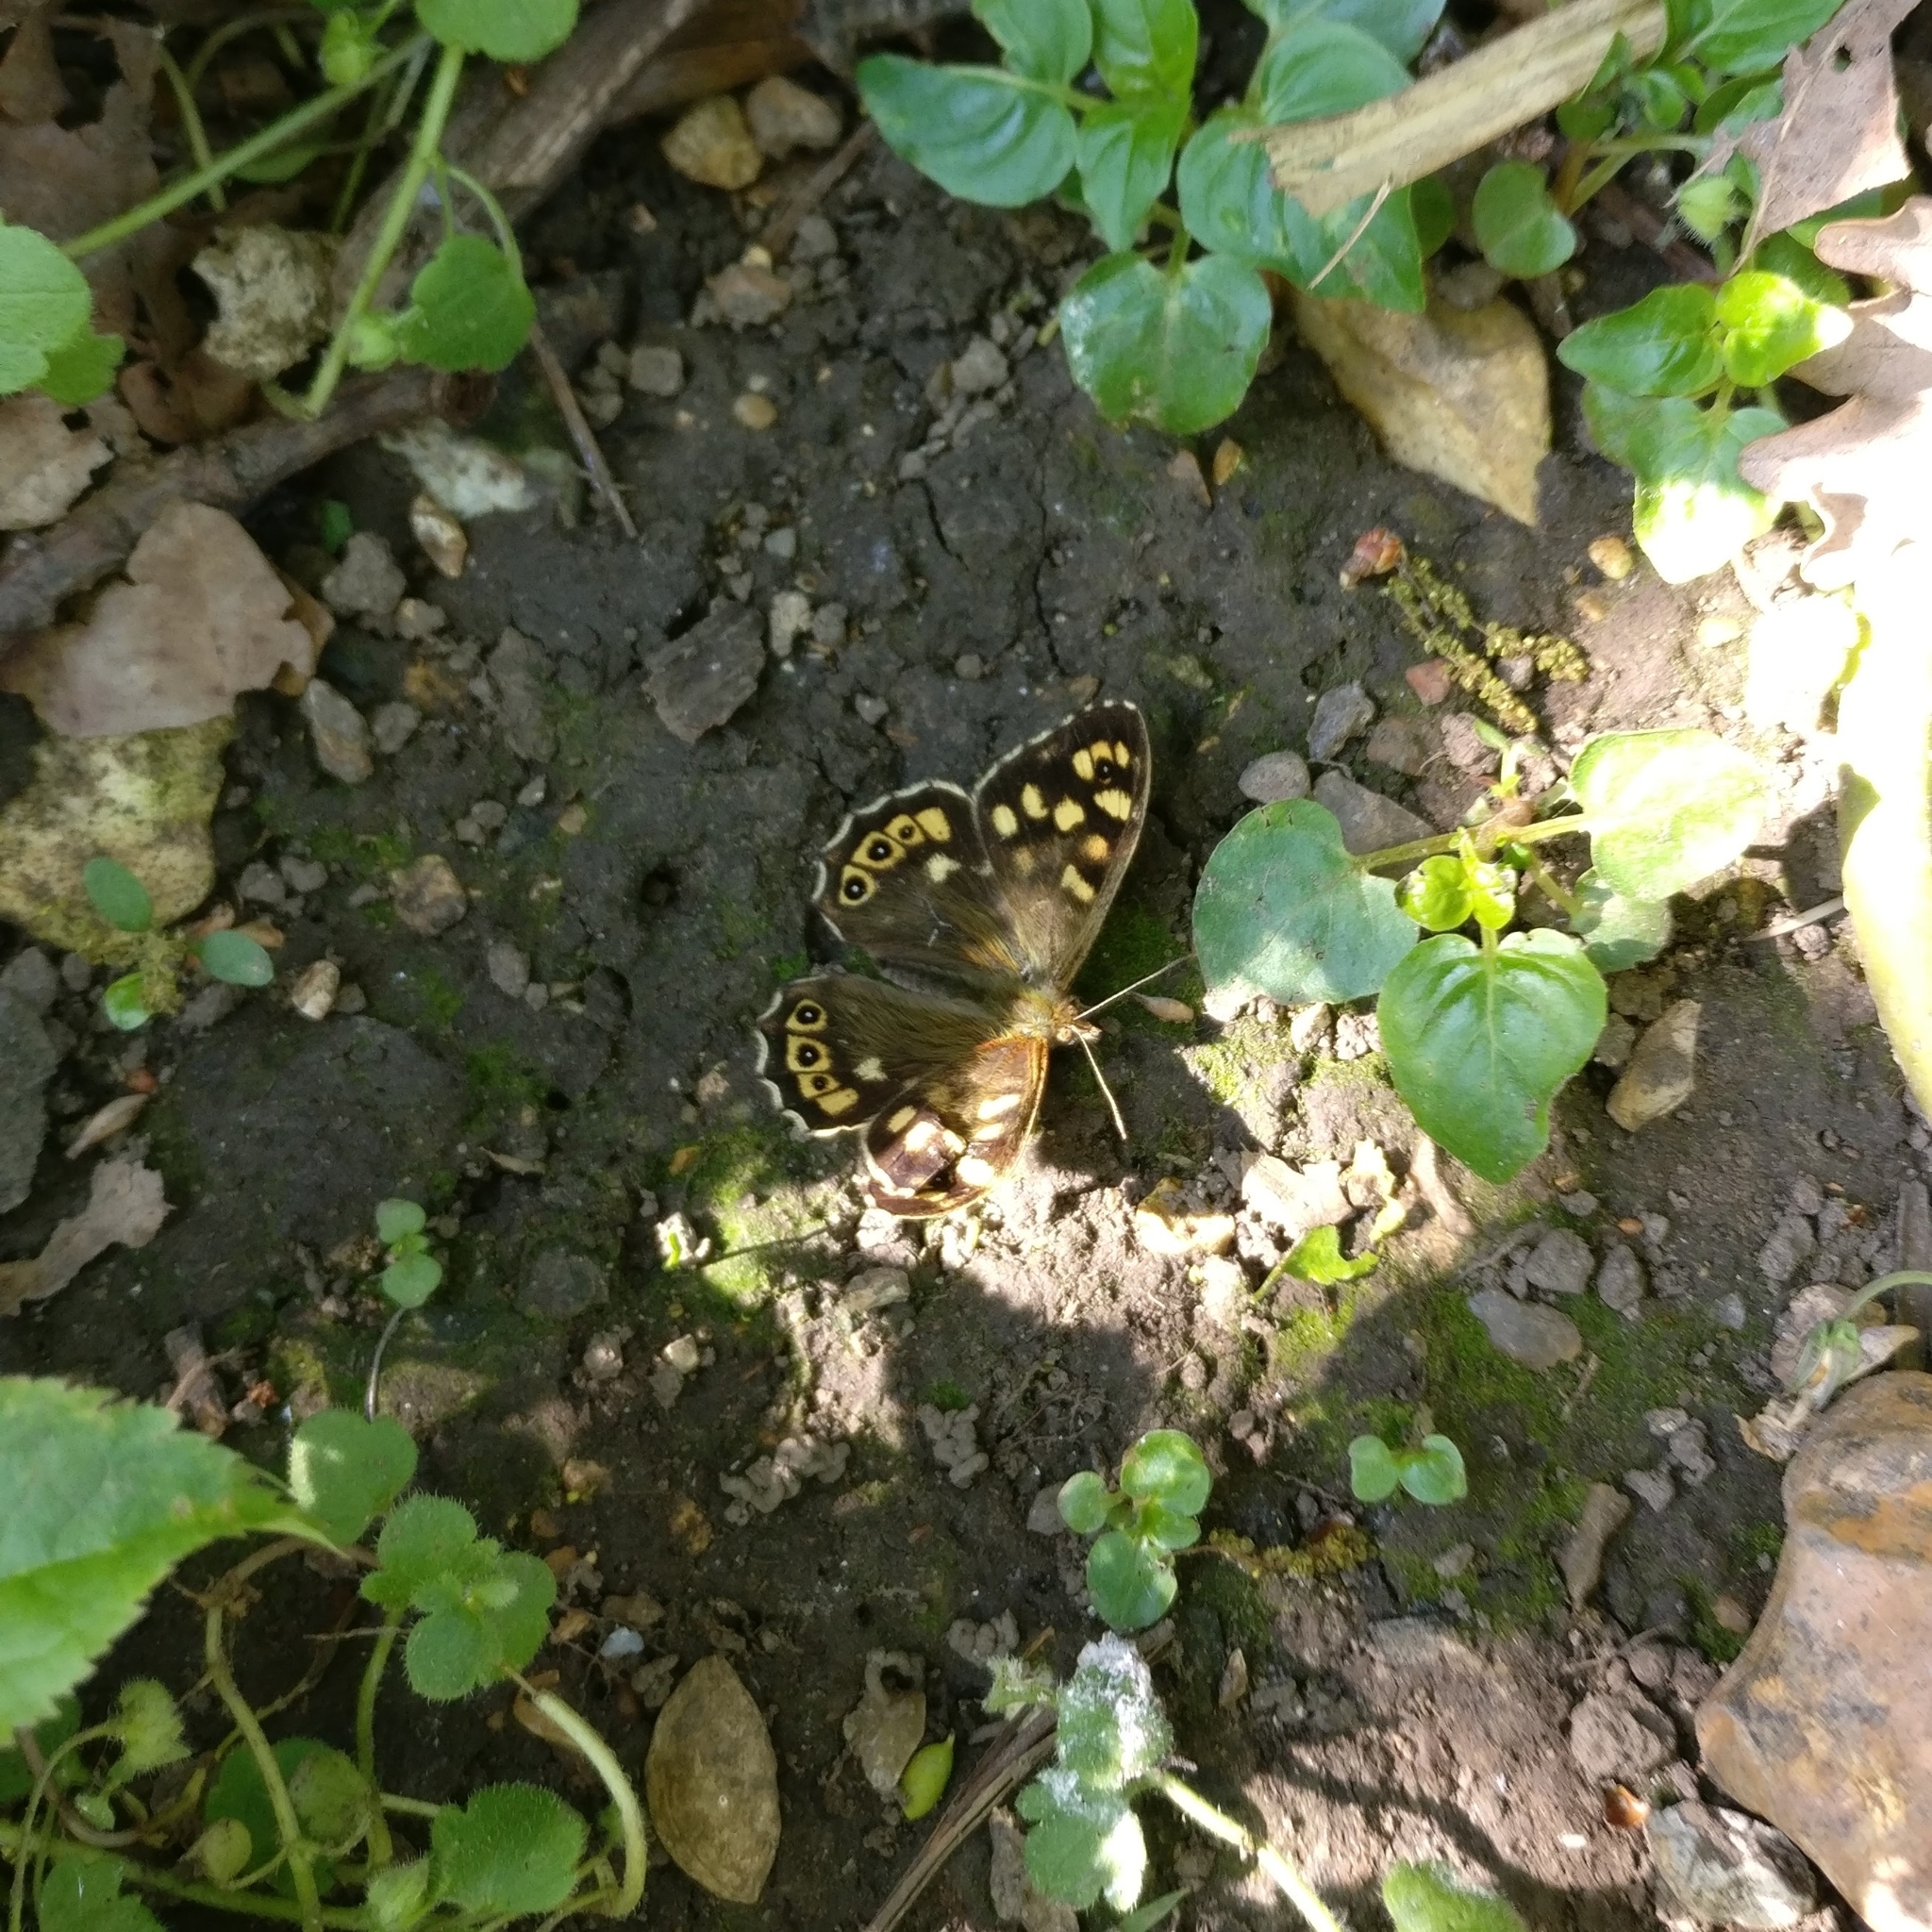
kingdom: Animalia
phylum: Arthropoda
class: Insecta
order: Lepidoptera
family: Nymphalidae
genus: Pararge
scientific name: Pararge aegeria
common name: Speckled wood
